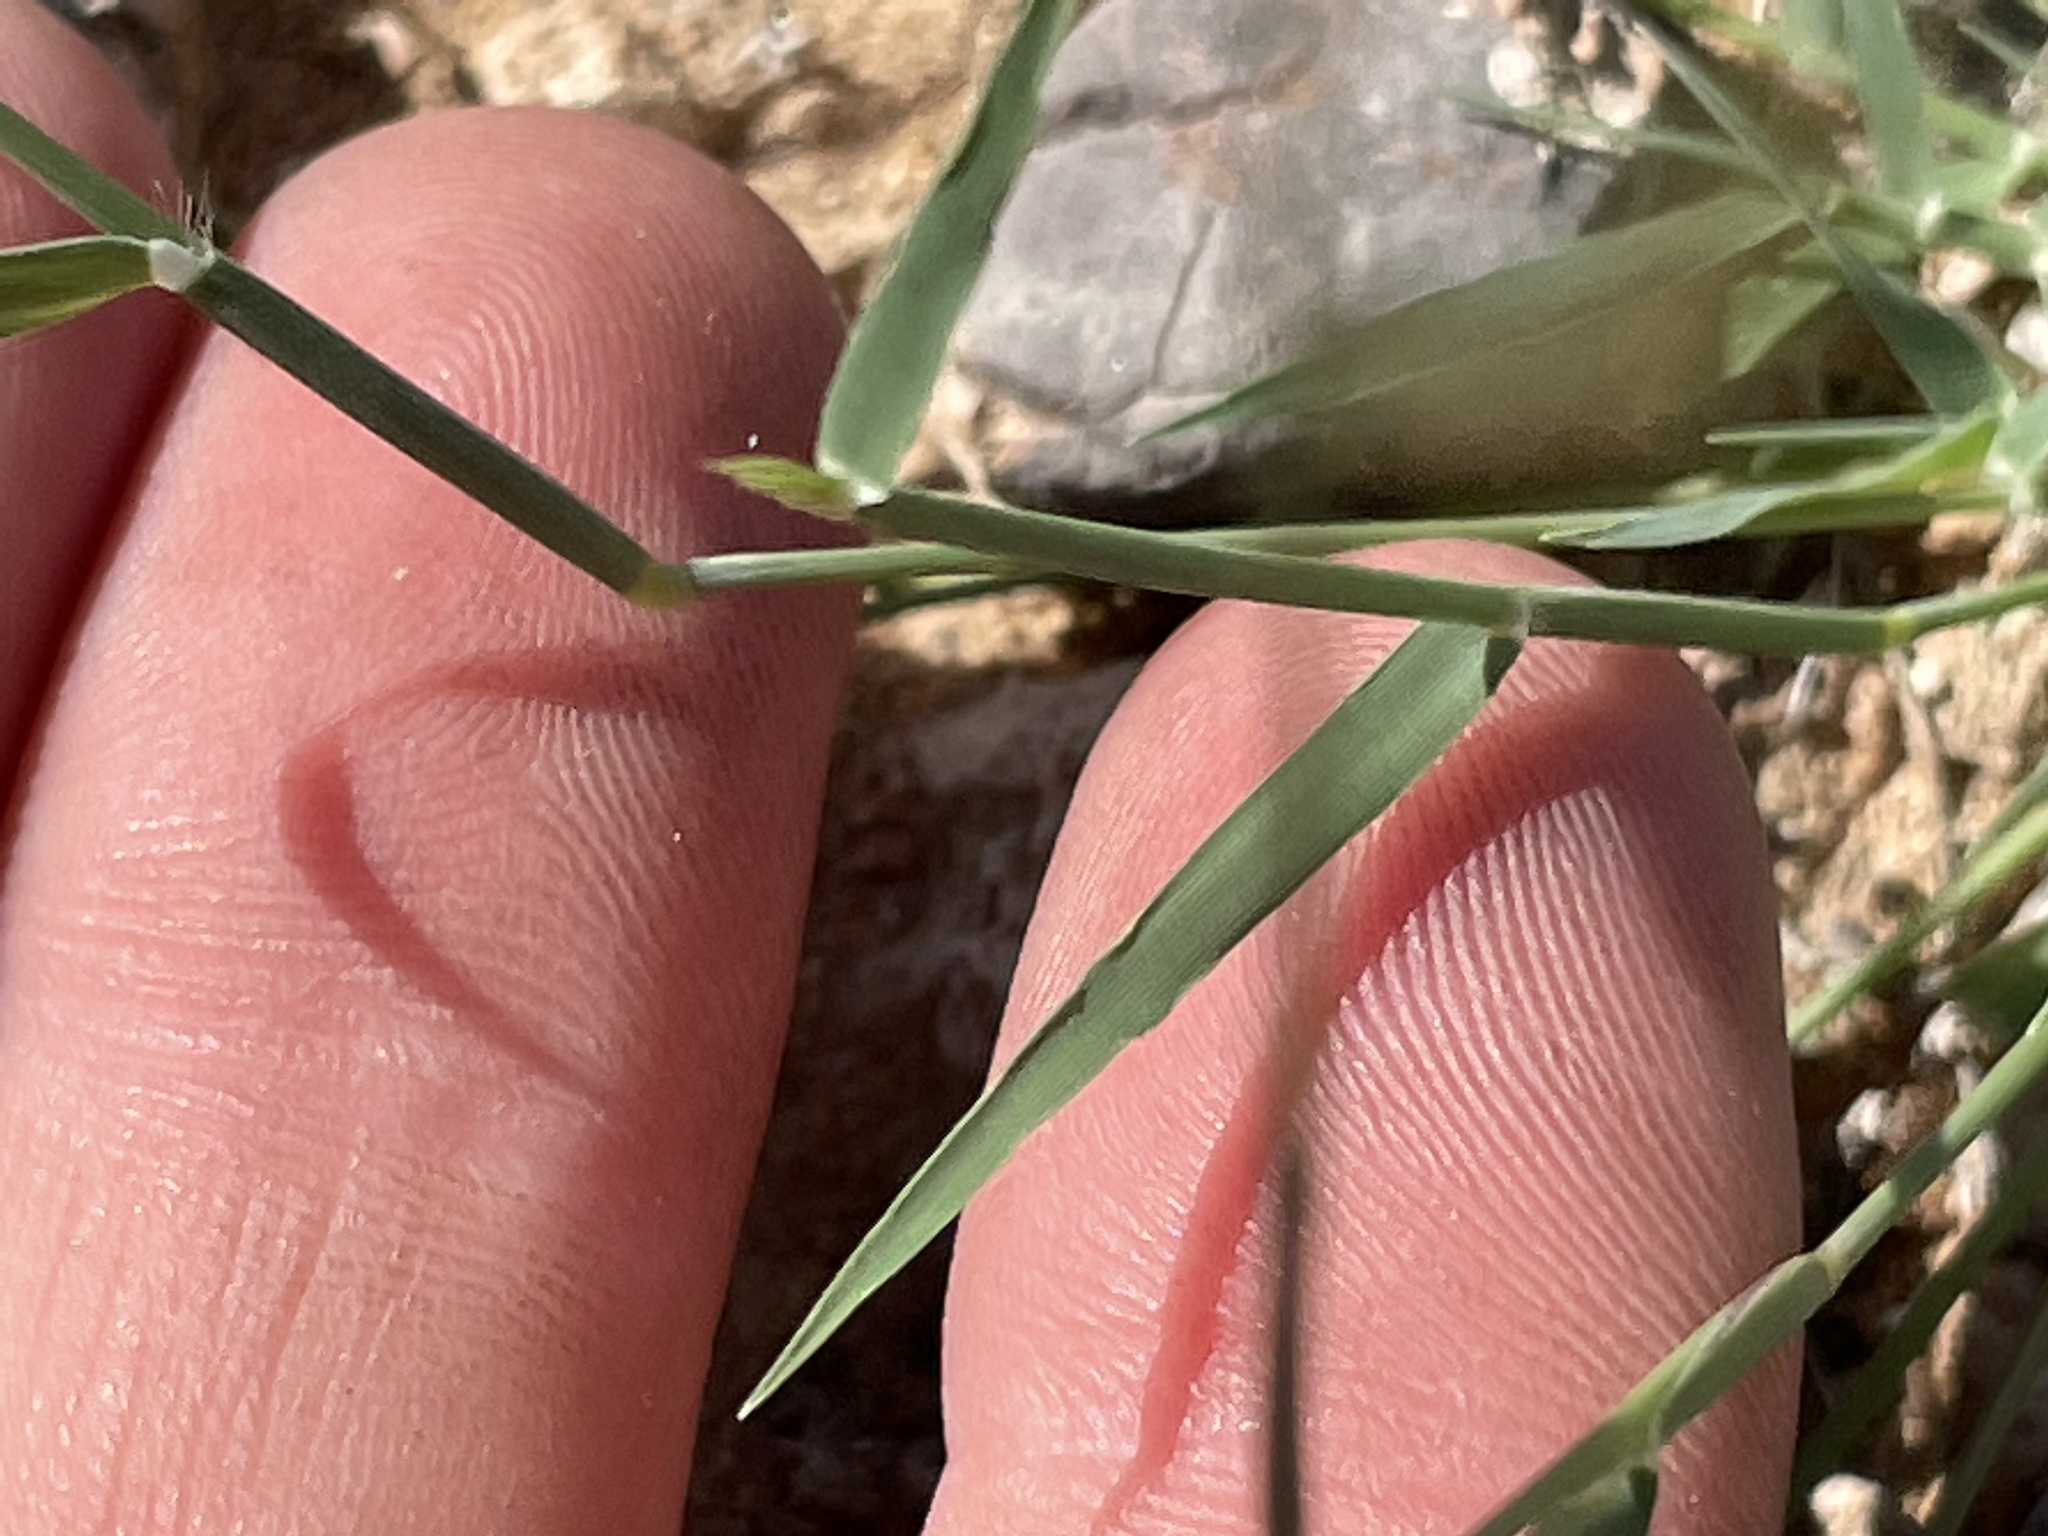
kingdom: Plantae
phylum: Tracheophyta
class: Liliopsida
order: Poales
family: Poaceae
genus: Bouteloua
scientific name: Bouteloua barbata
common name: Six-weeks grama
